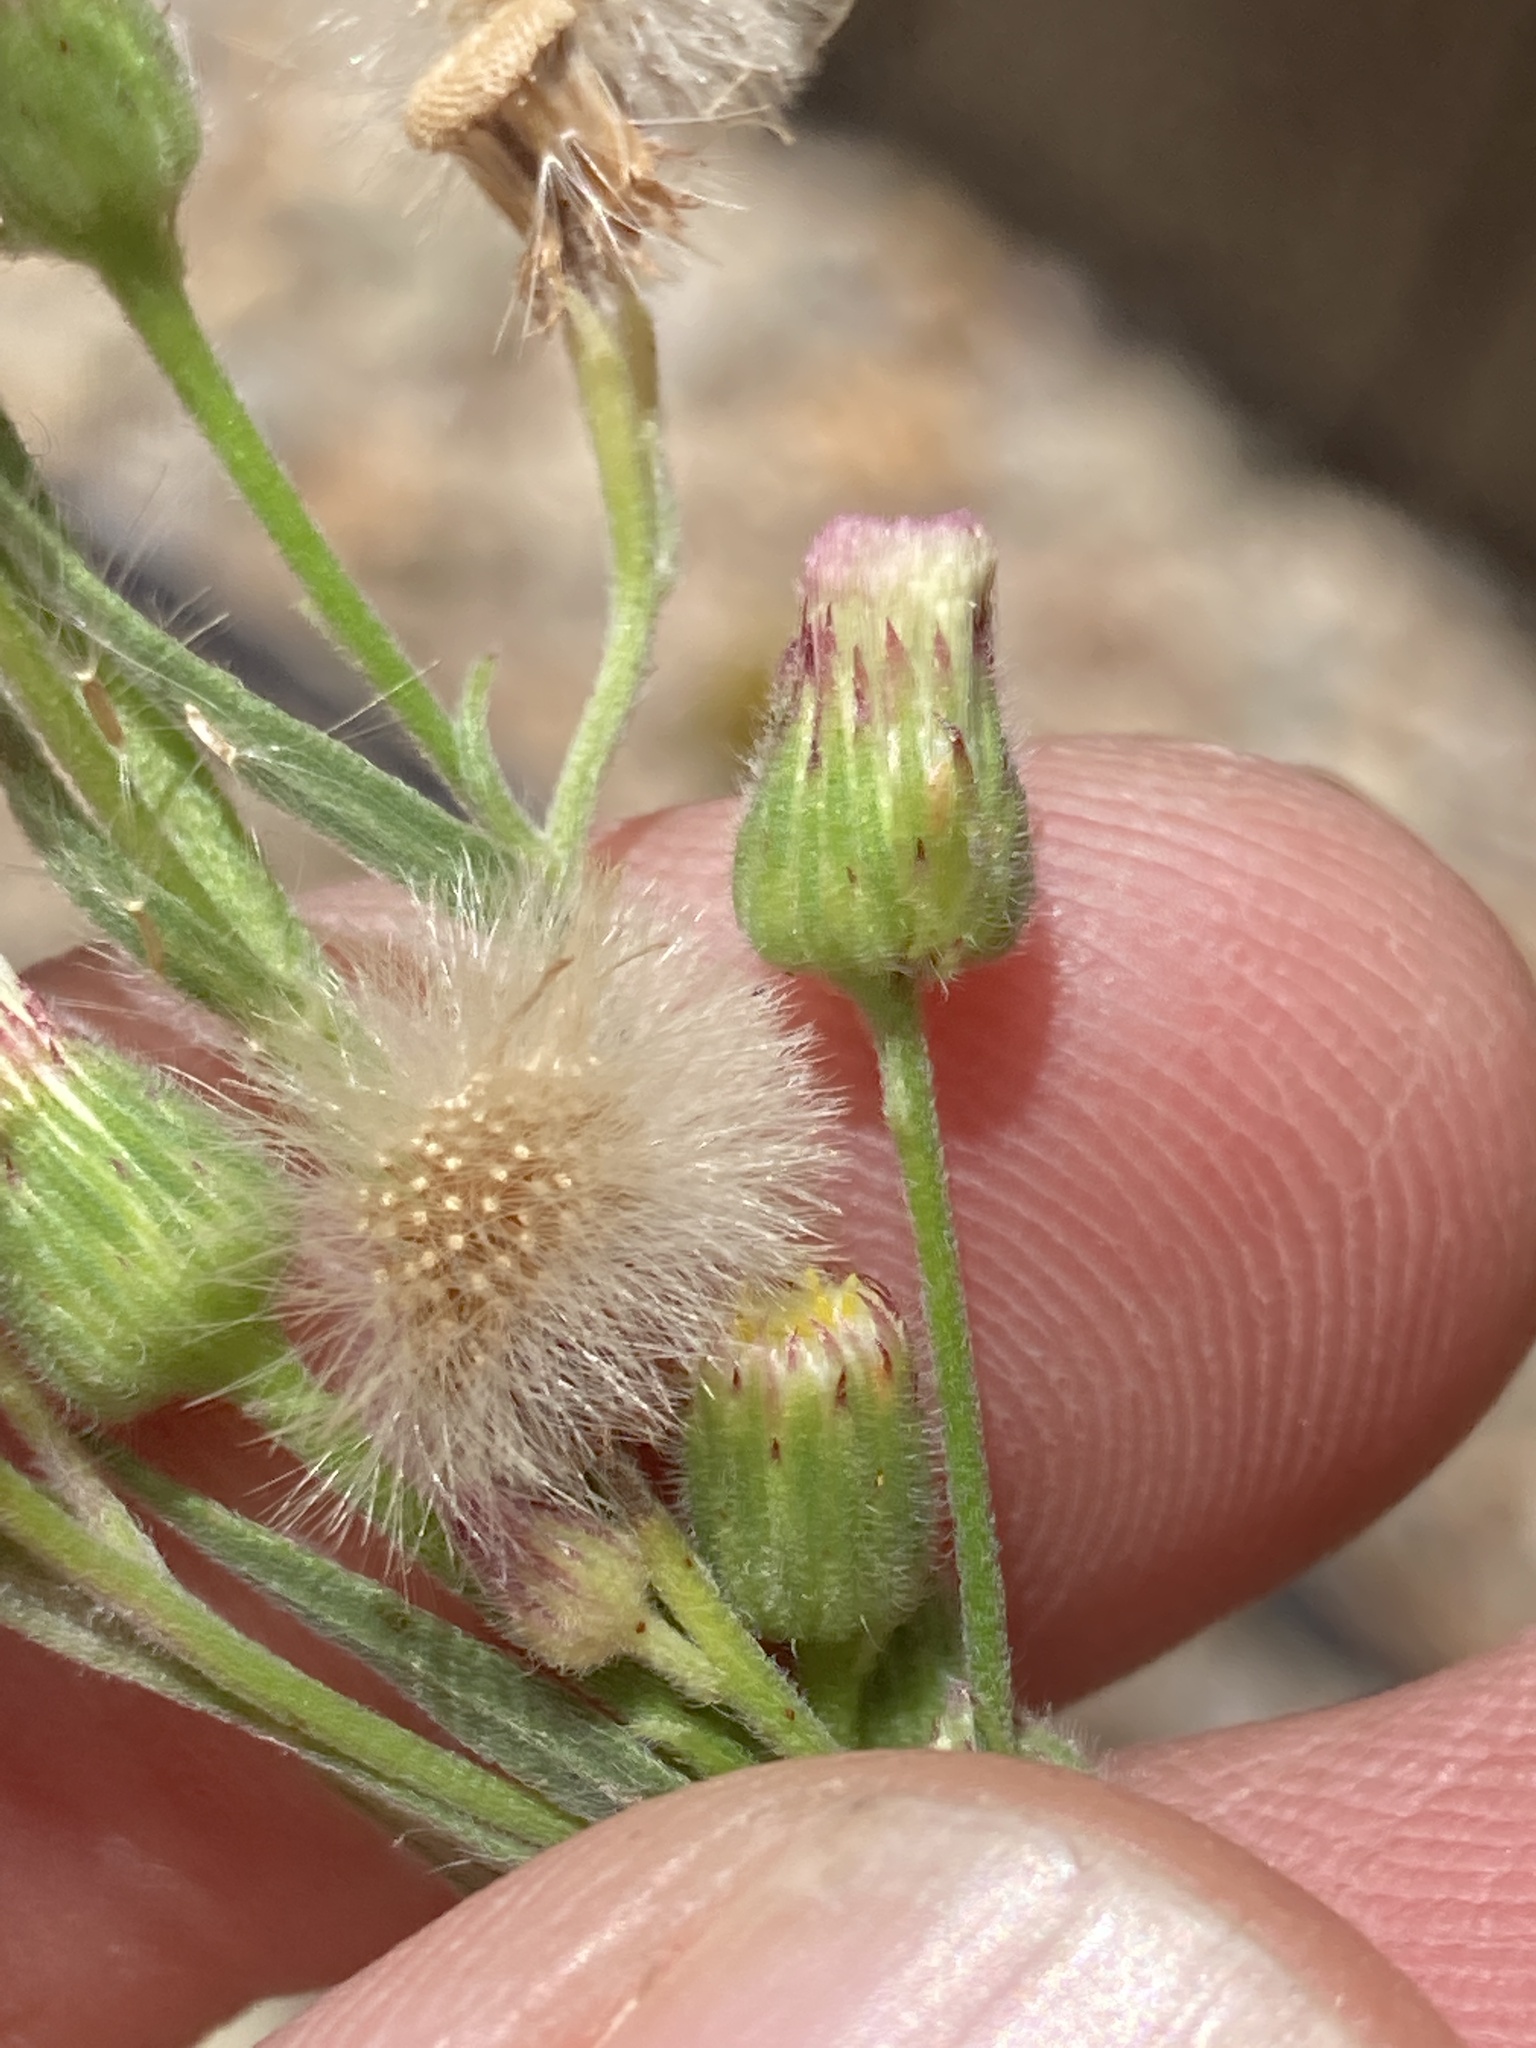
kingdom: Plantae
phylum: Tracheophyta
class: Magnoliopsida
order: Asterales
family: Asteraceae
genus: Erigeron
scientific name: Erigeron bonariensis
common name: Argentine fleabane
